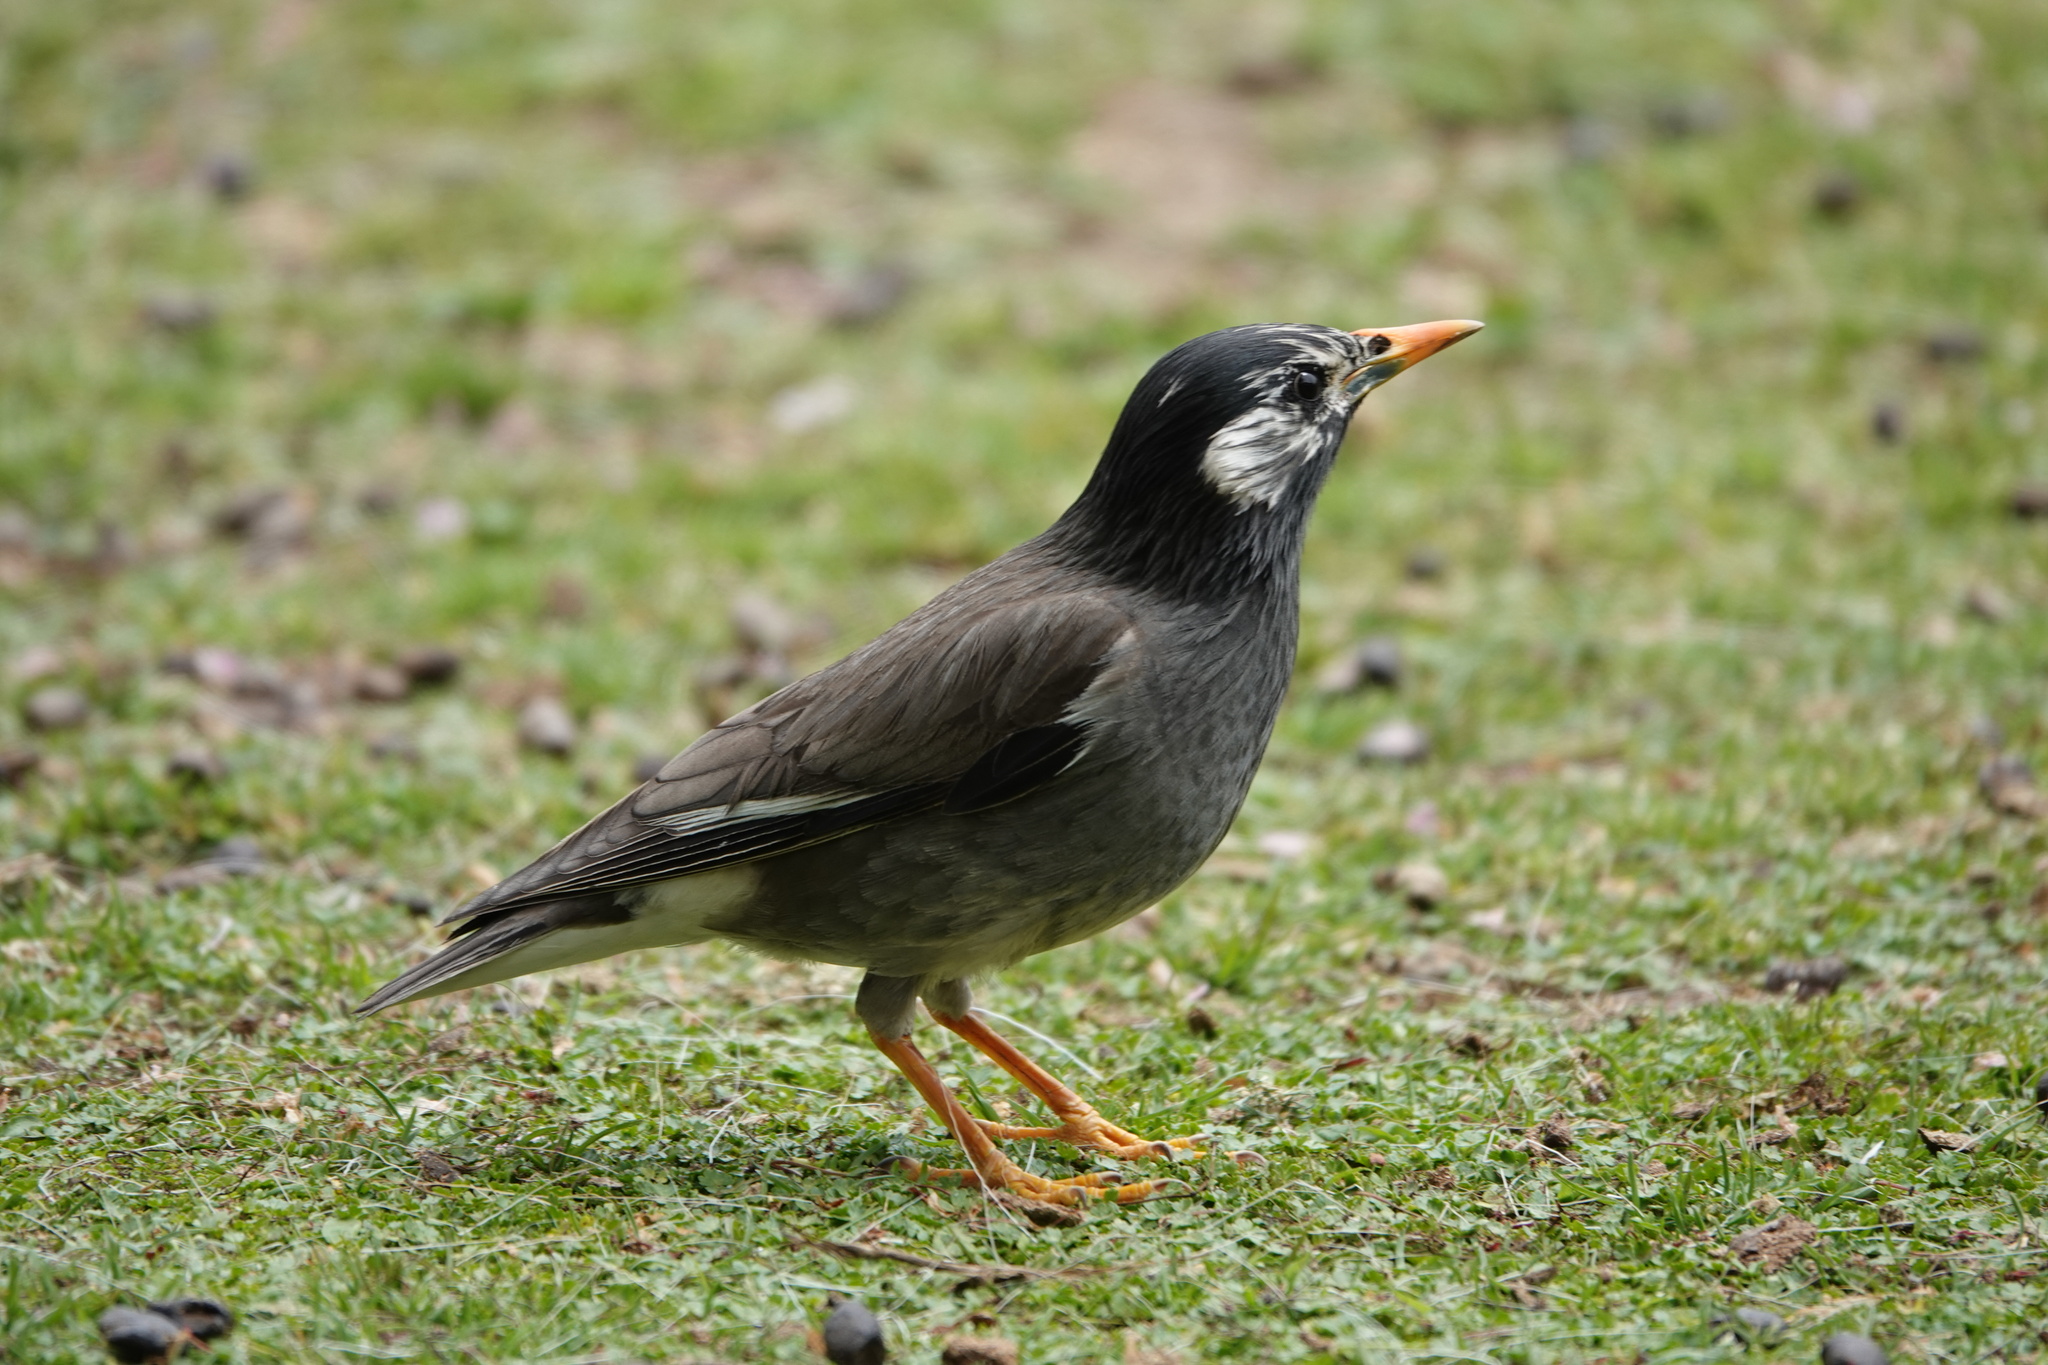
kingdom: Animalia
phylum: Chordata
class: Aves
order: Passeriformes
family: Sturnidae
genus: Spodiopsar
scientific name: Spodiopsar cineraceus
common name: White-cheeked starling
